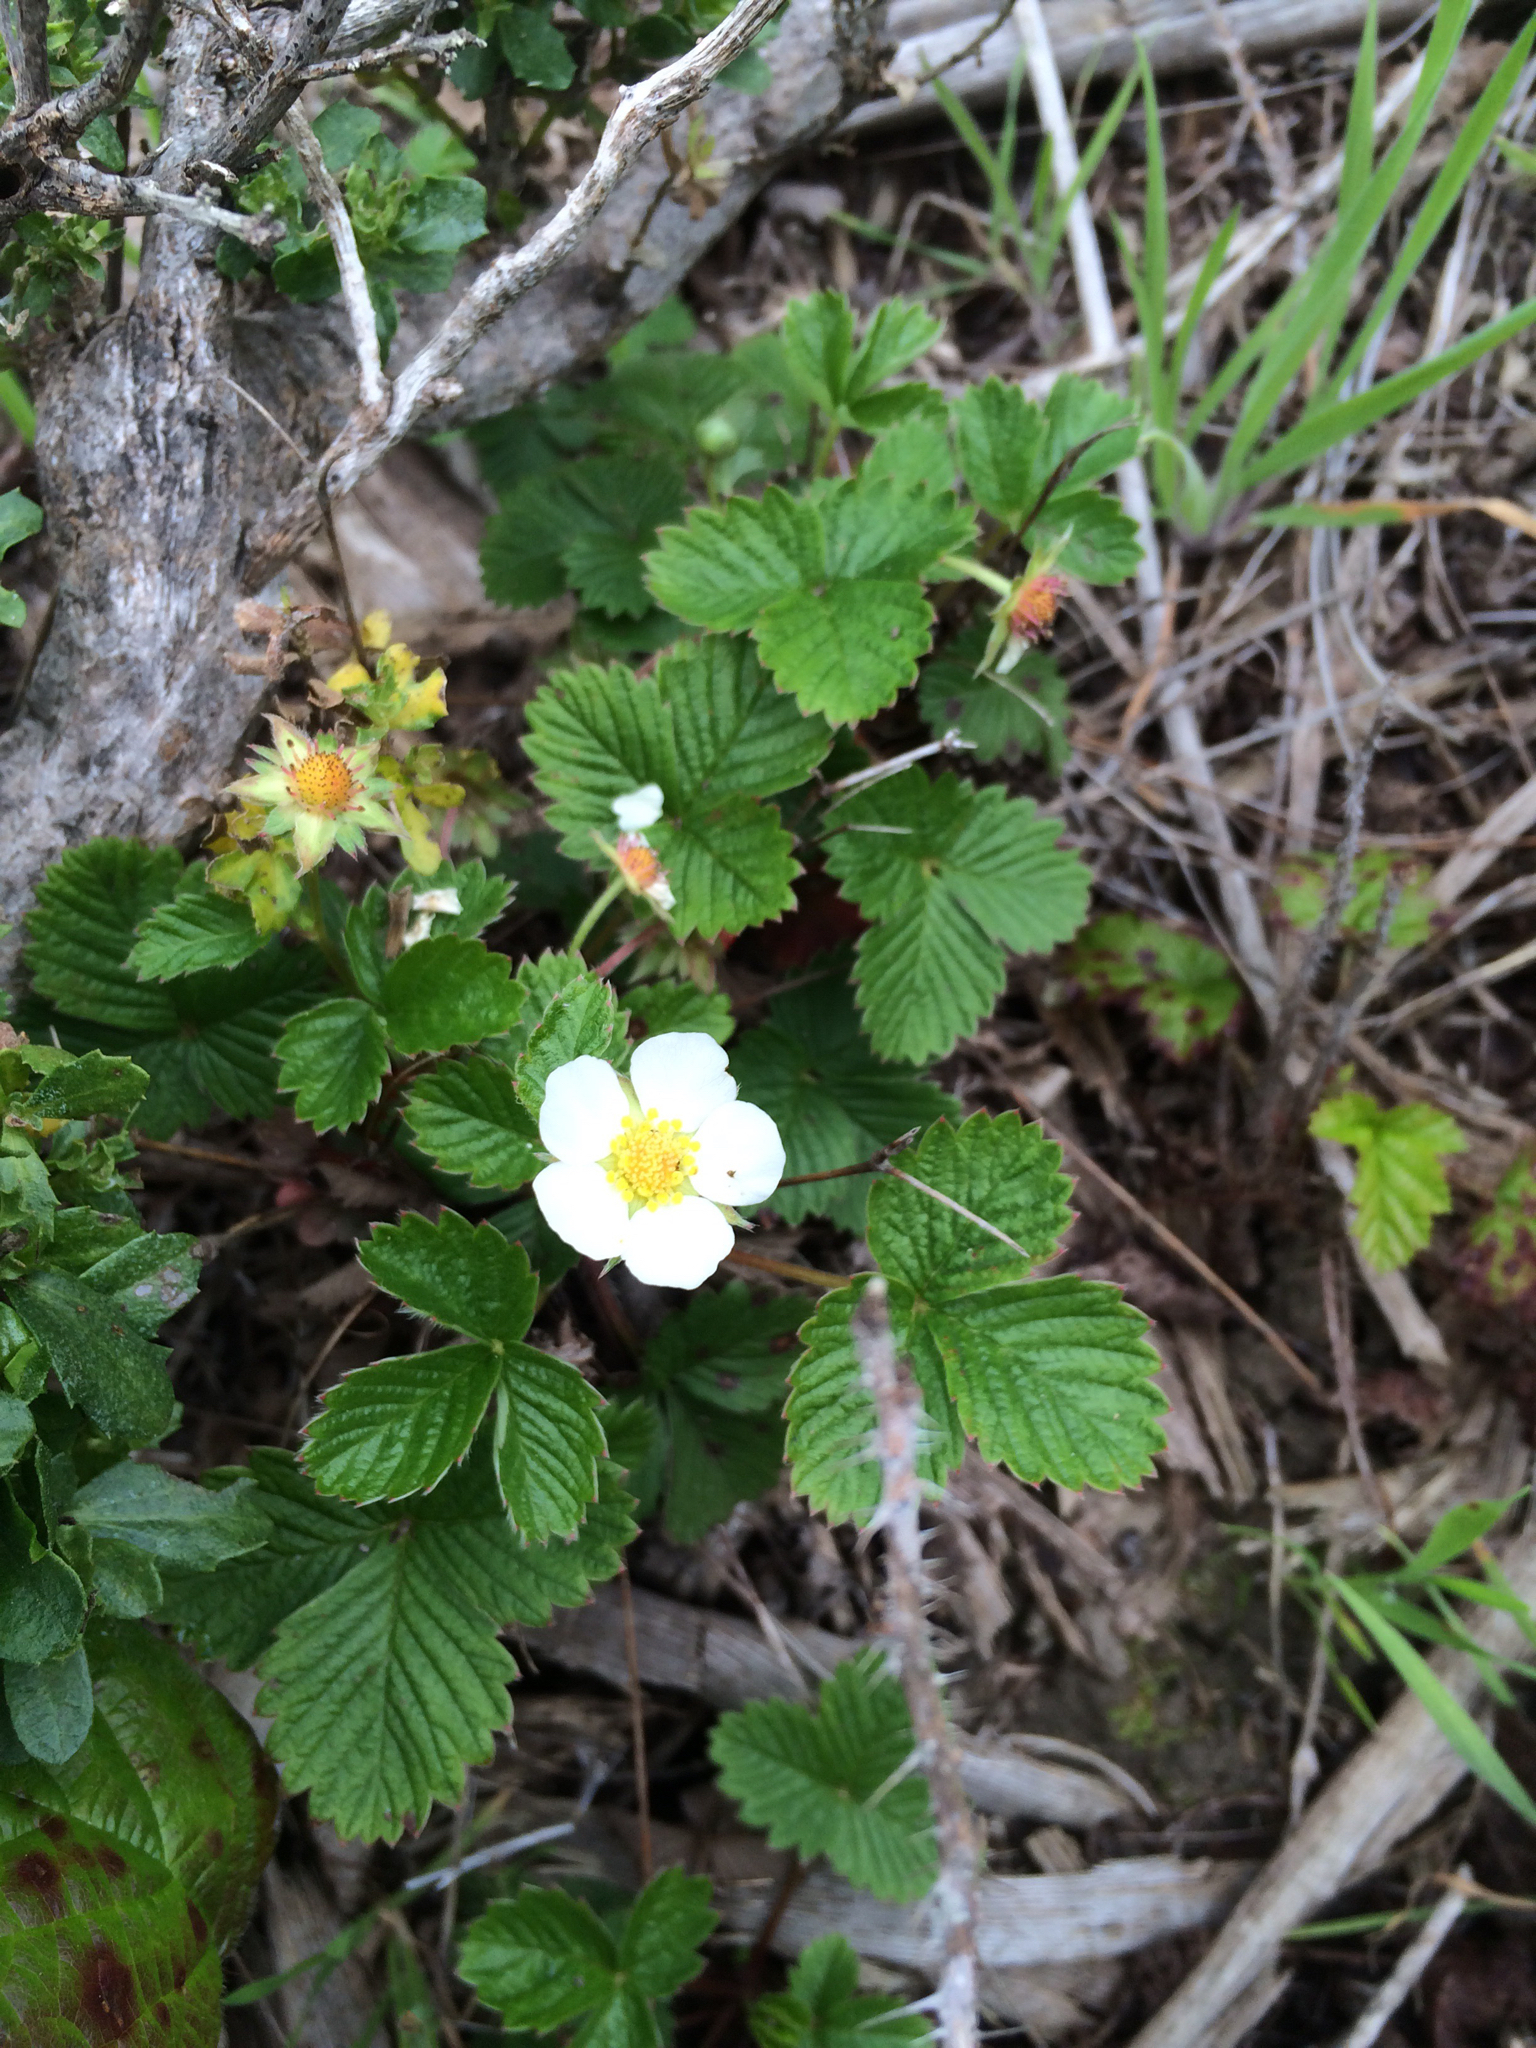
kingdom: Plantae
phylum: Tracheophyta
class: Magnoliopsida
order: Rosales
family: Rosaceae
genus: Fragaria
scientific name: Fragaria vesca
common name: Wild strawberry
